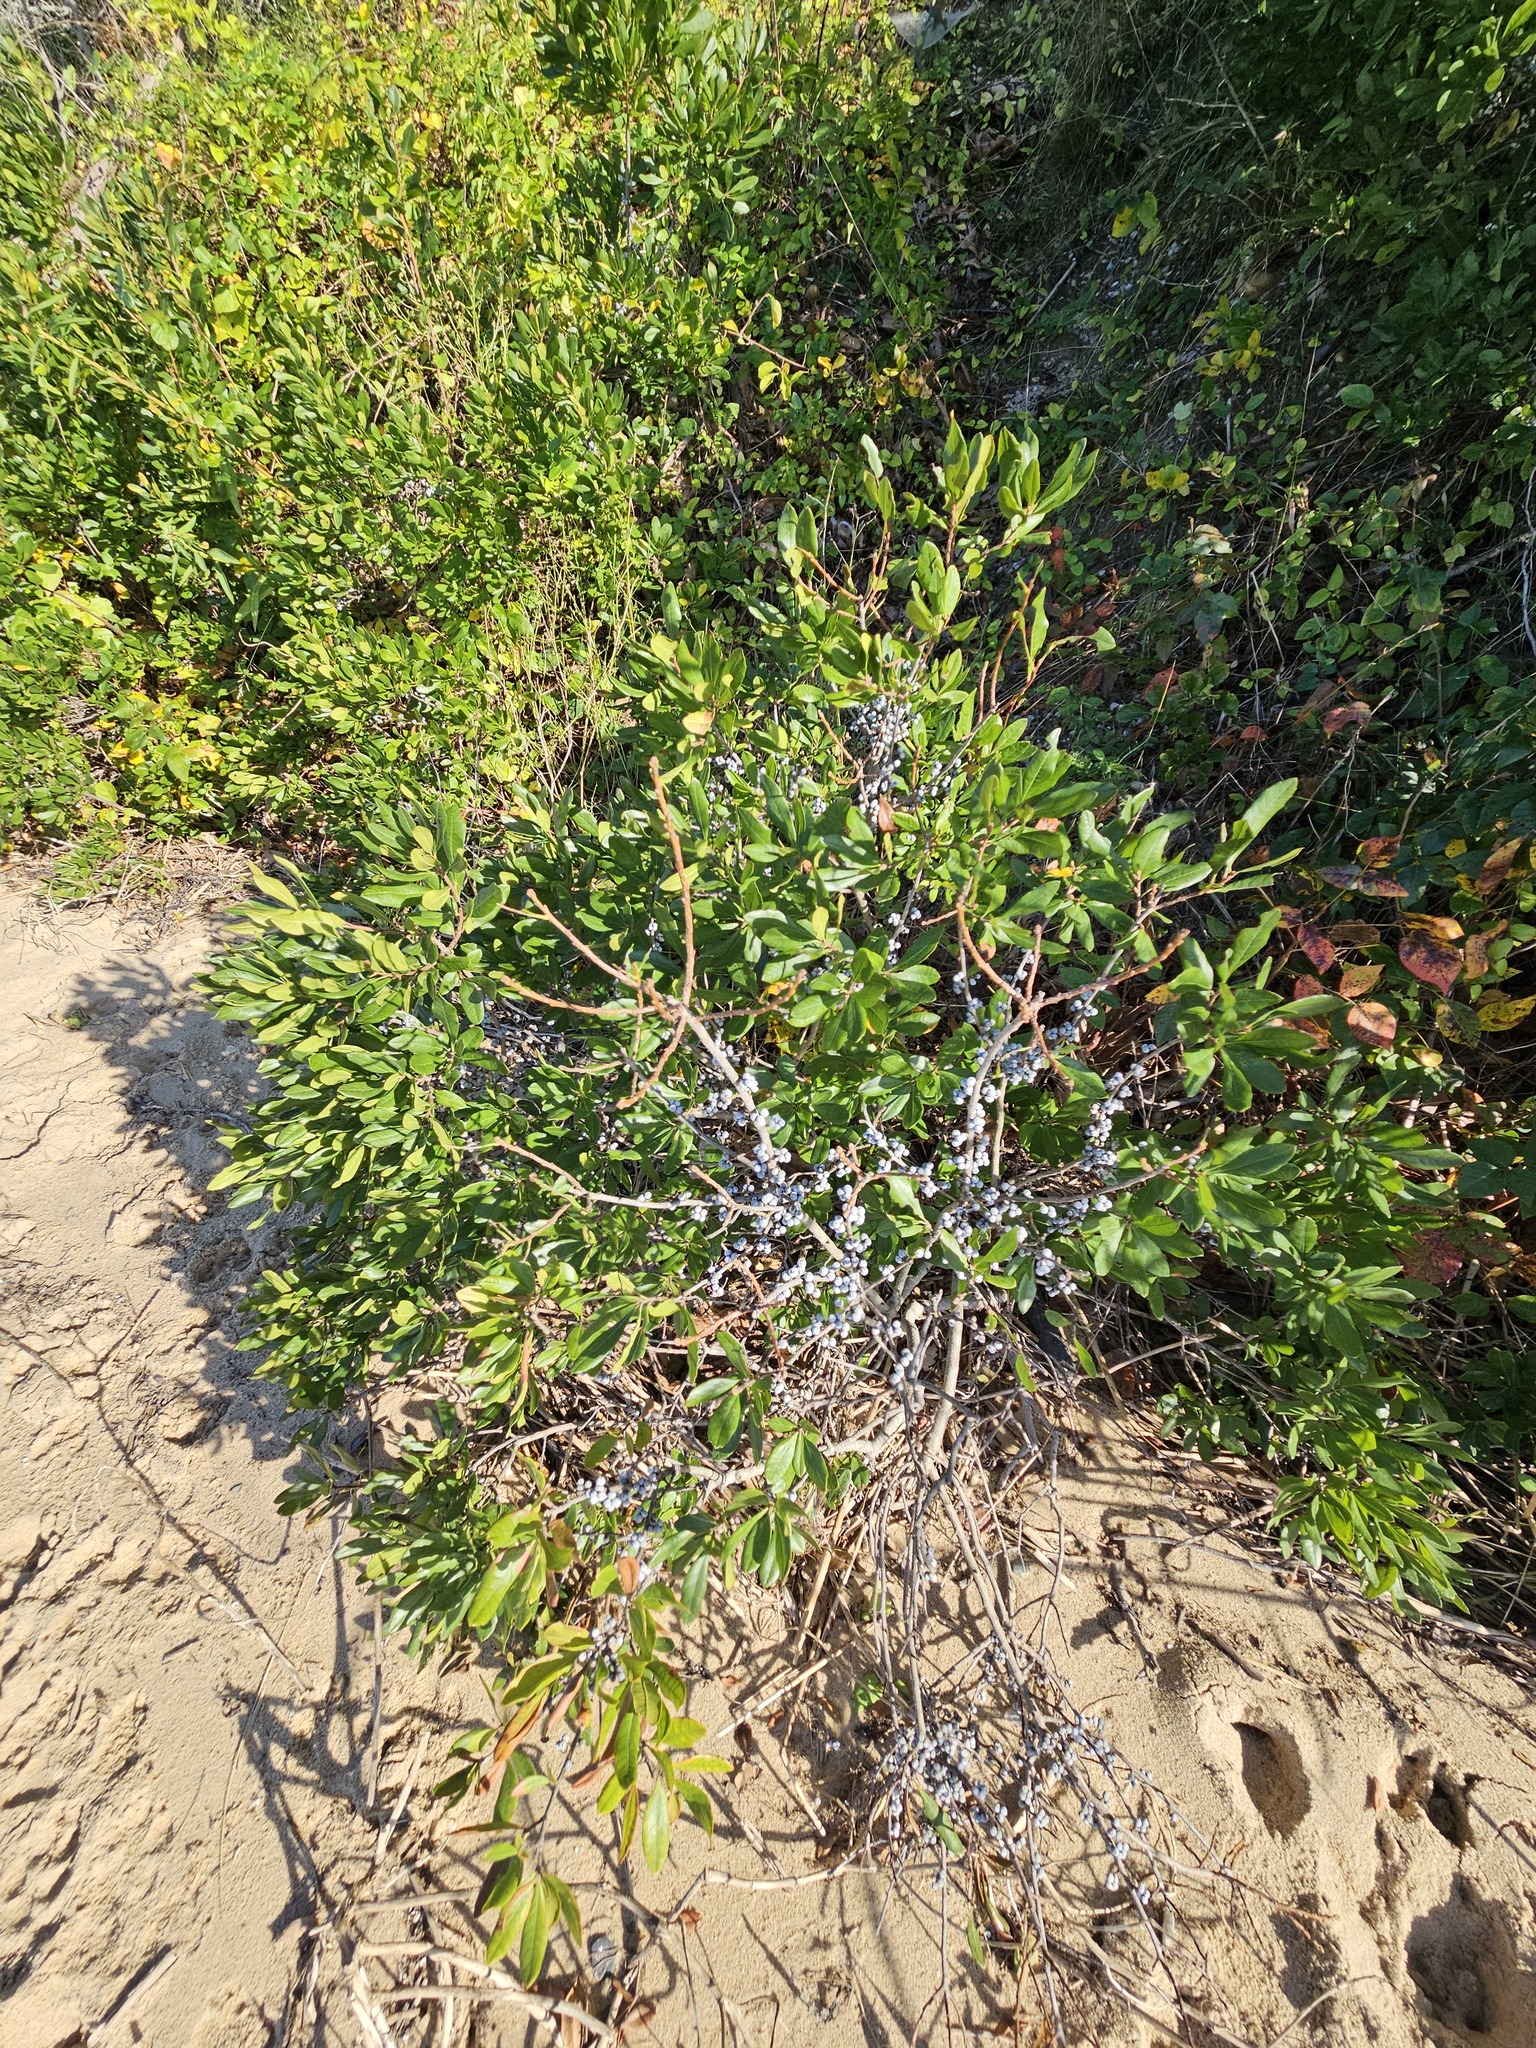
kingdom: Plantae
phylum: Tracheophyta
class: Magnoliopsida
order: Fagales
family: Myricaceae
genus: Morella
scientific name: Morella pensylvanica
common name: Northern bayberry
